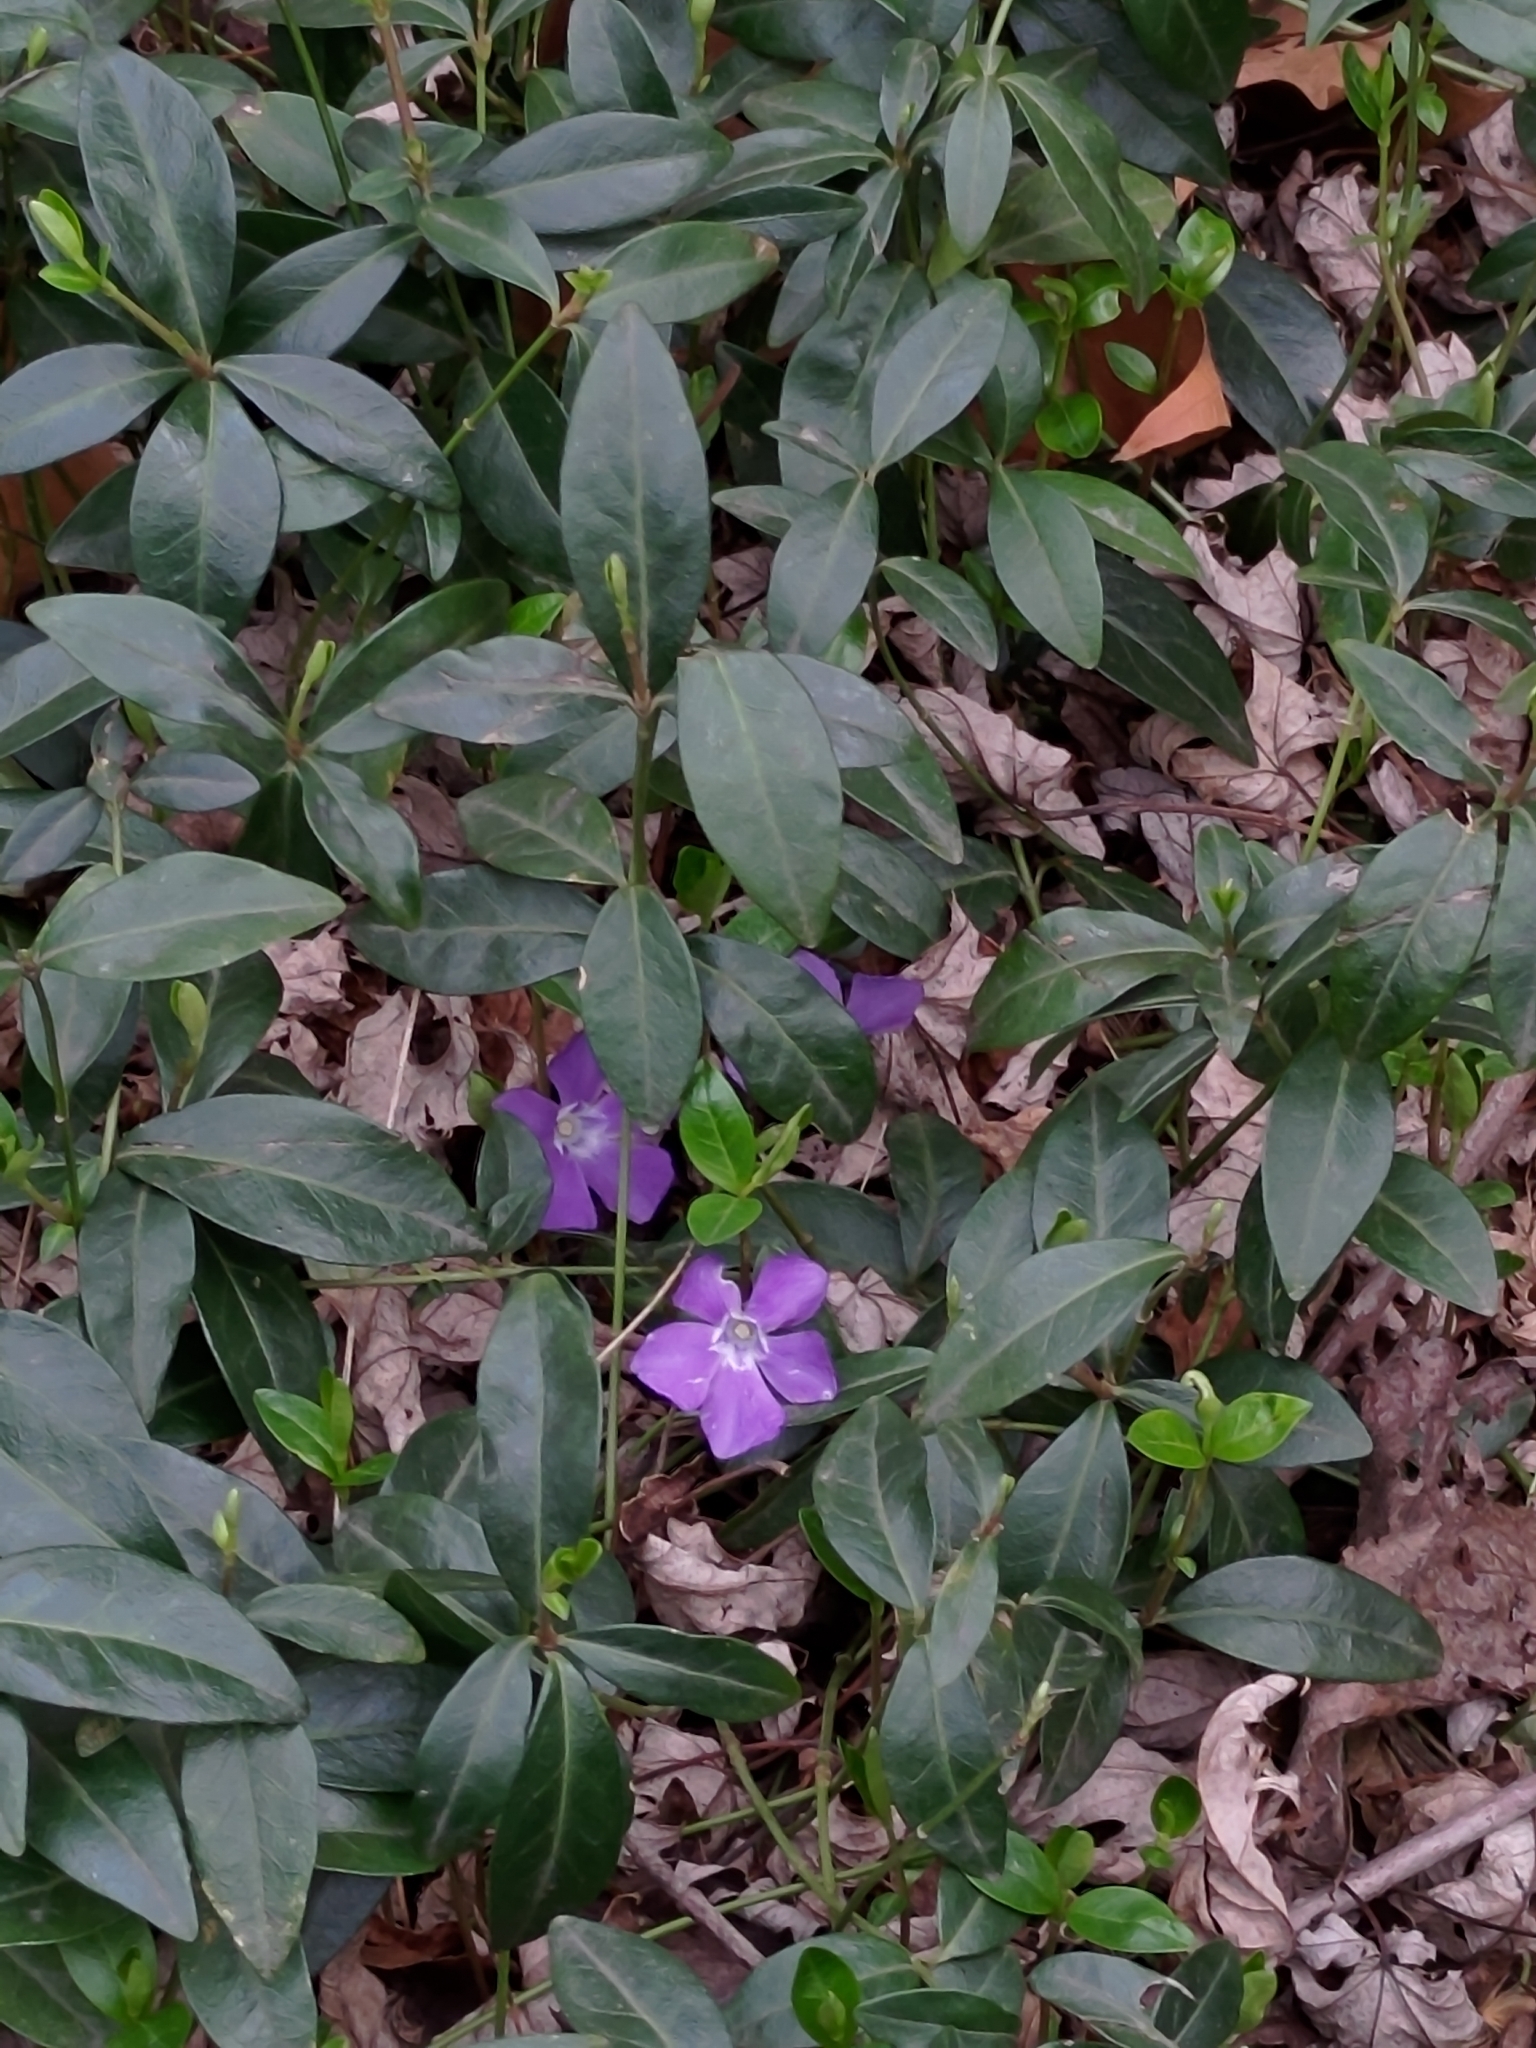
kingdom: Plantae
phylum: Tracheophyta
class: Magnoliopsida
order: Gentianales
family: Apocynaceae
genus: Vinca
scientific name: Vinca minor
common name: Lesser periwinkle
